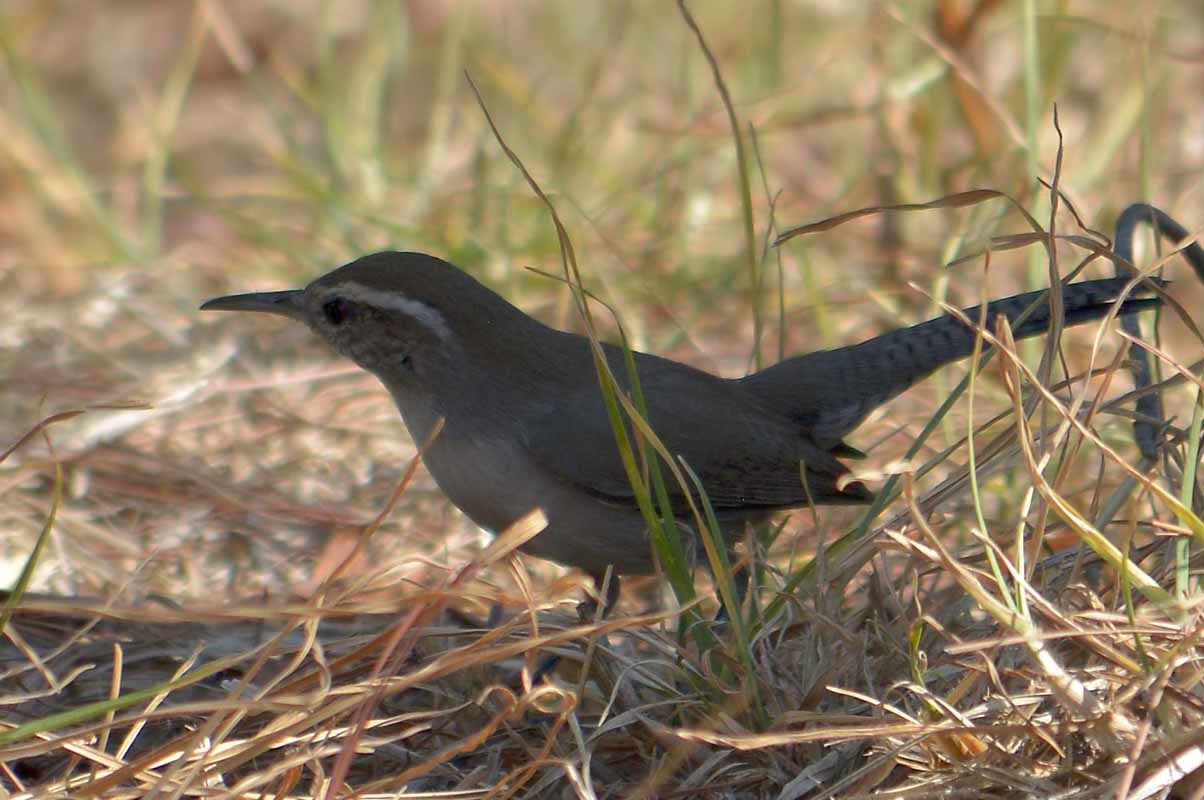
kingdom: Animalia
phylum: Chordata
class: Aves
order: Passeriformes
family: Troglodytidae
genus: Thryomanes
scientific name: Thryomanes bewickii
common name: Bewick's wren
